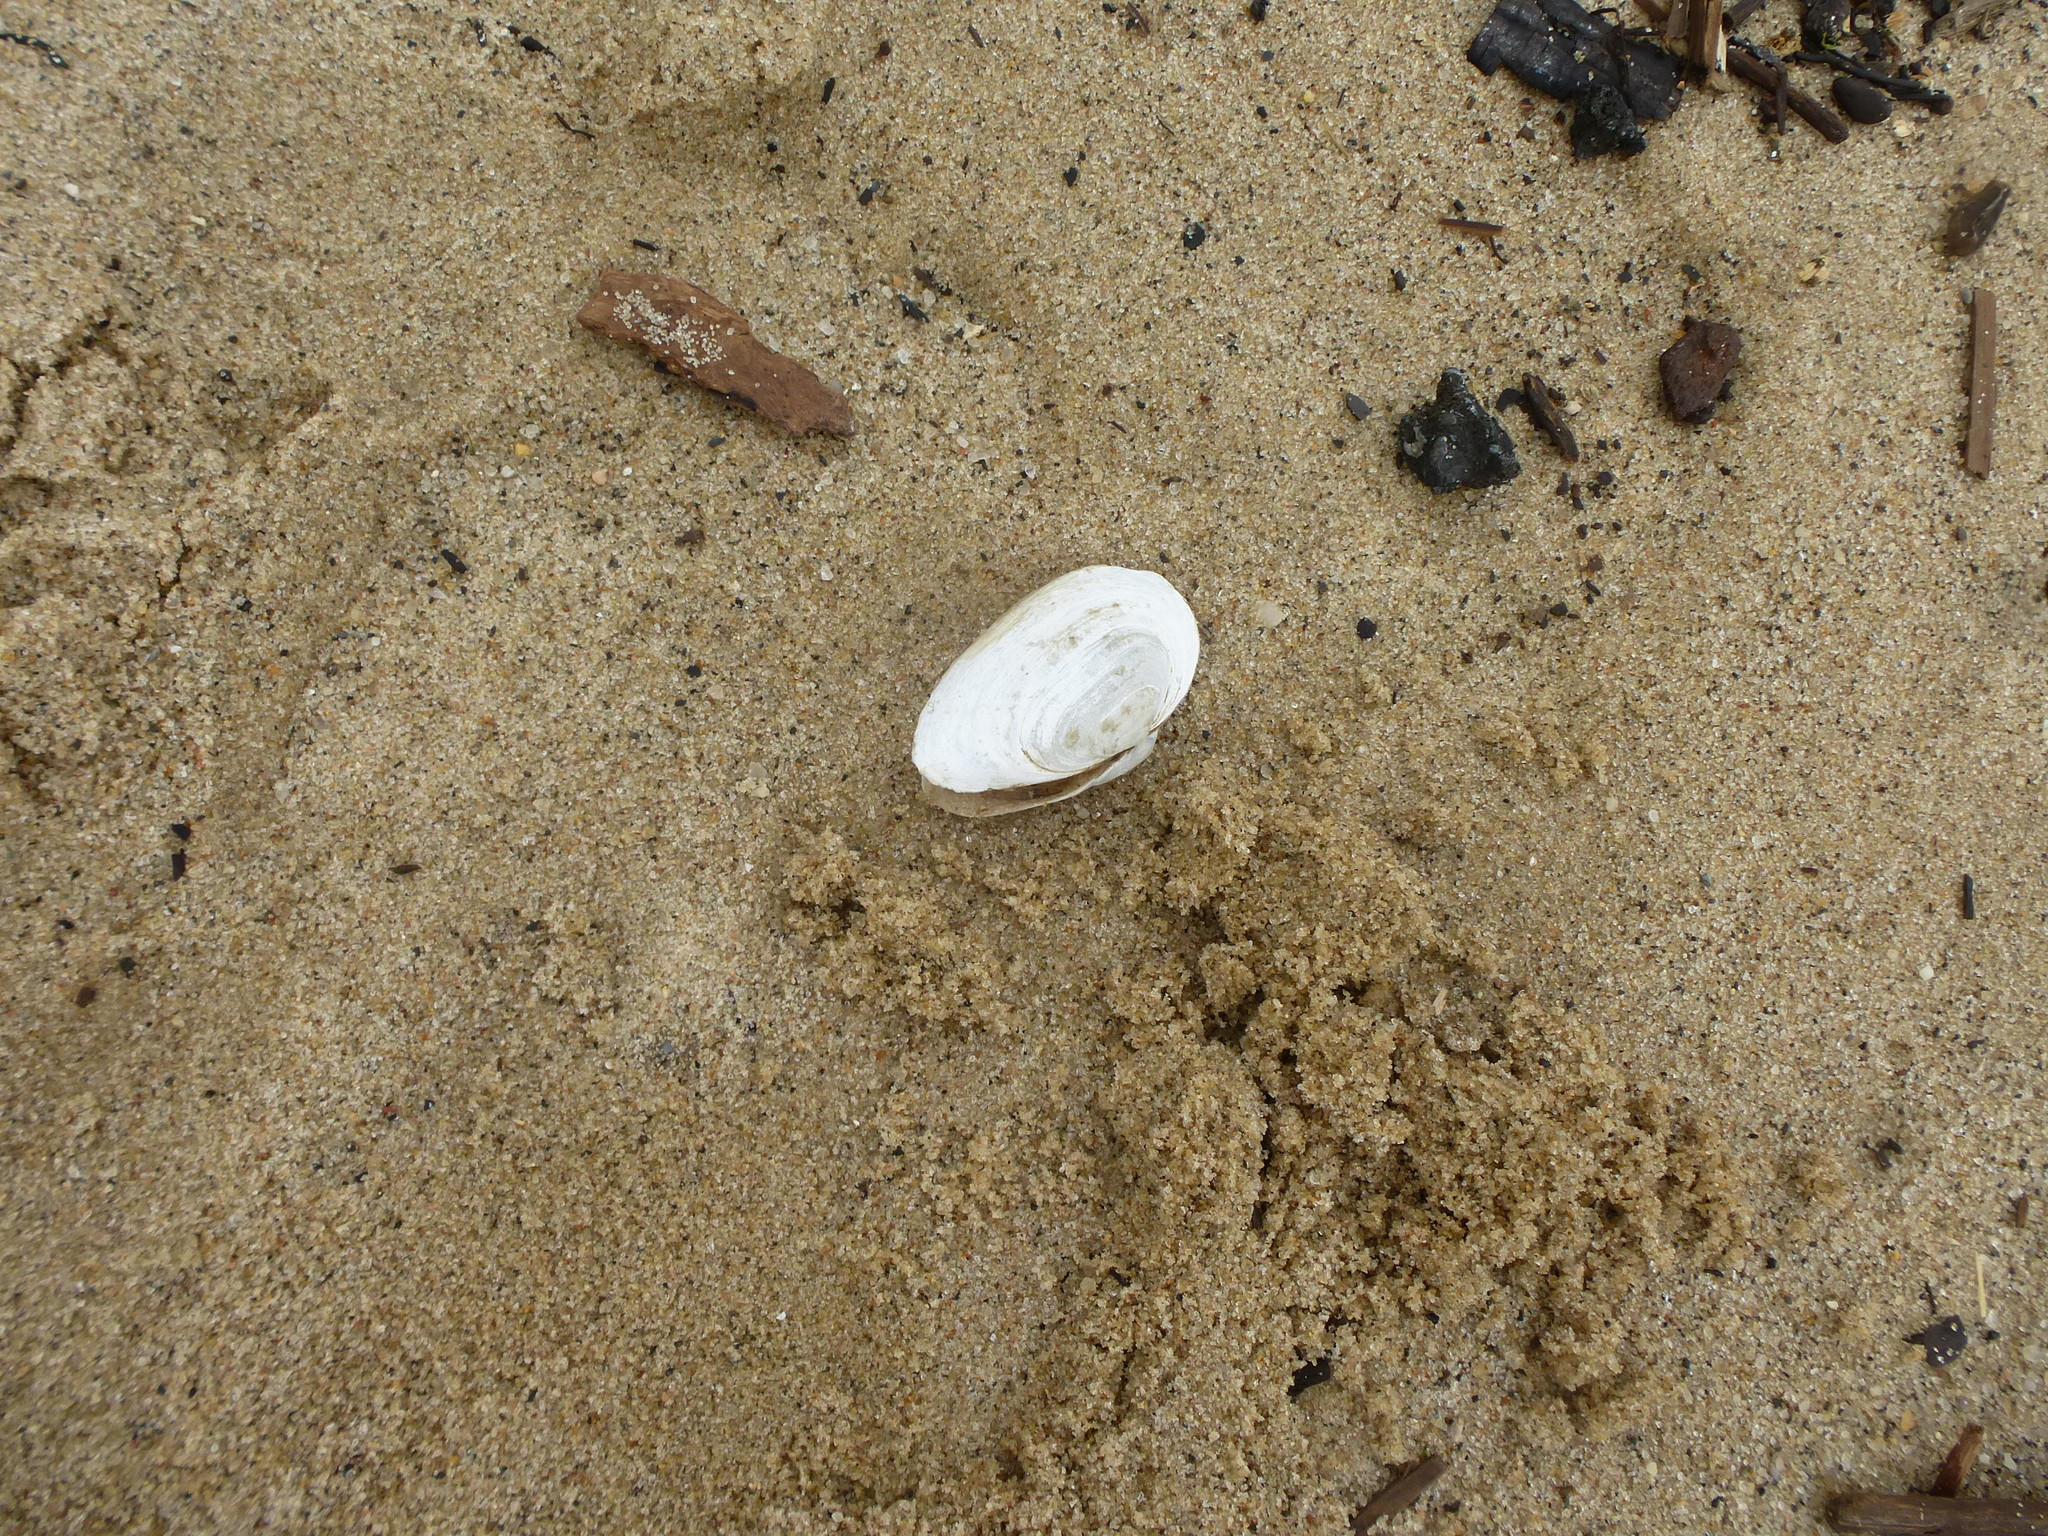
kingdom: Animalia
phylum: Mollusca
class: Bivalvia
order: Myida
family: Myidae
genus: Mya
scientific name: Mya arenaria
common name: Soft-shelled clam
